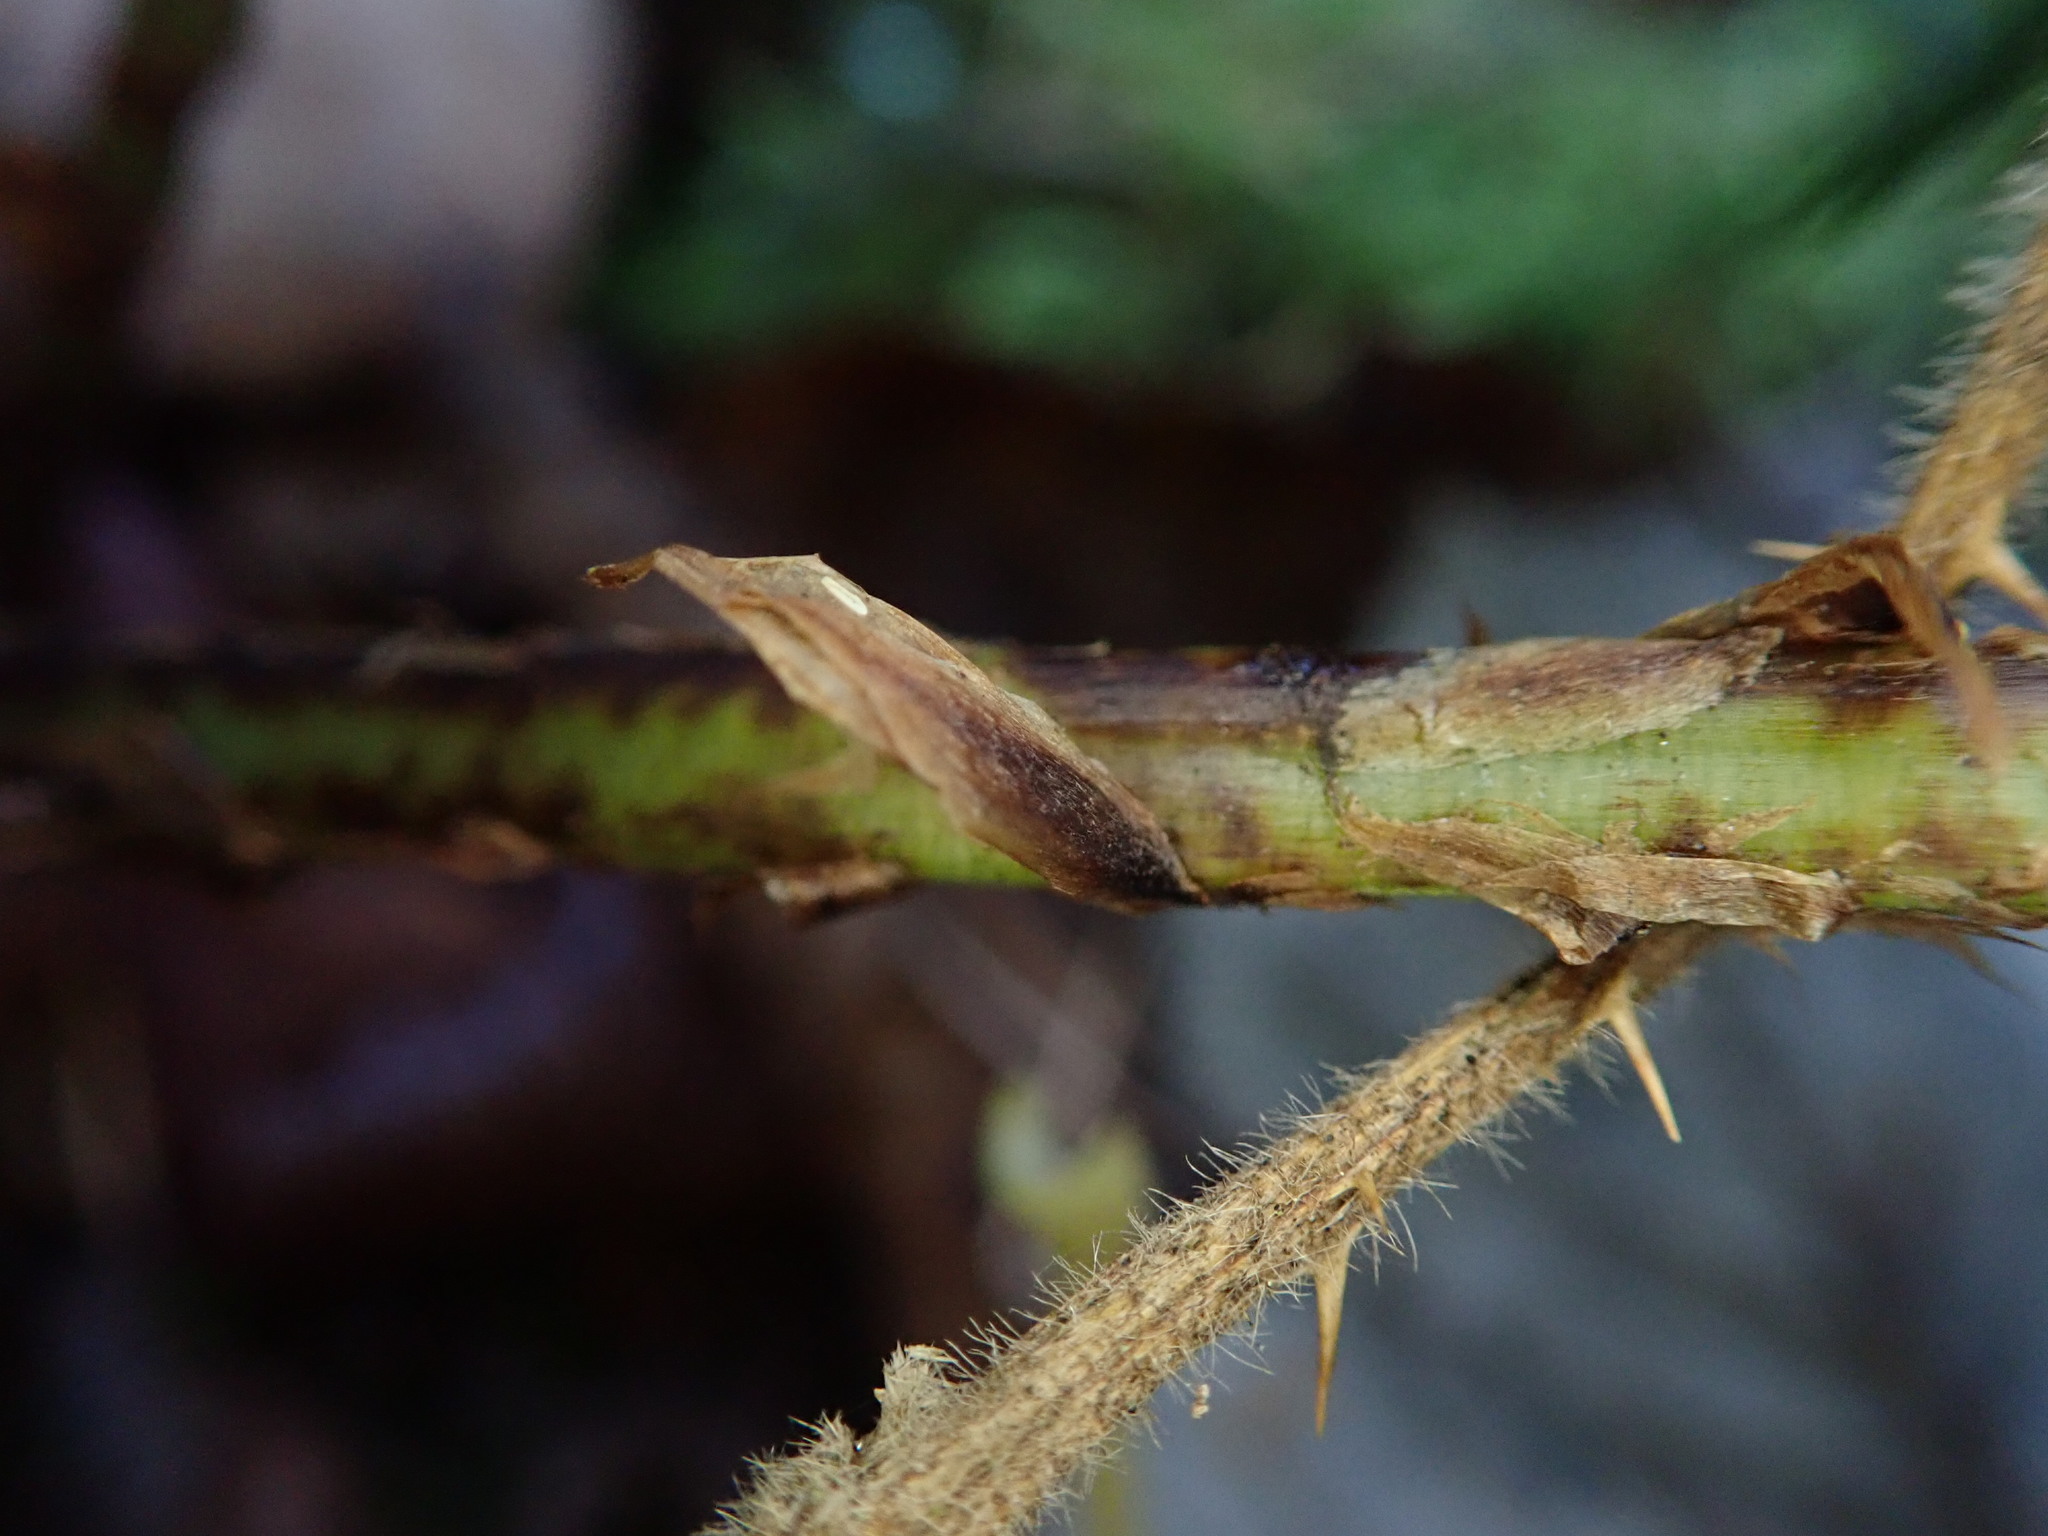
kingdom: Plantae
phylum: Tracheophyta
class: Polypodiopsida
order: Polypodiales
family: Dryopteridaceae
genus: Dryopteris
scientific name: Dryopteris dilatata
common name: Broad buckler-fern
